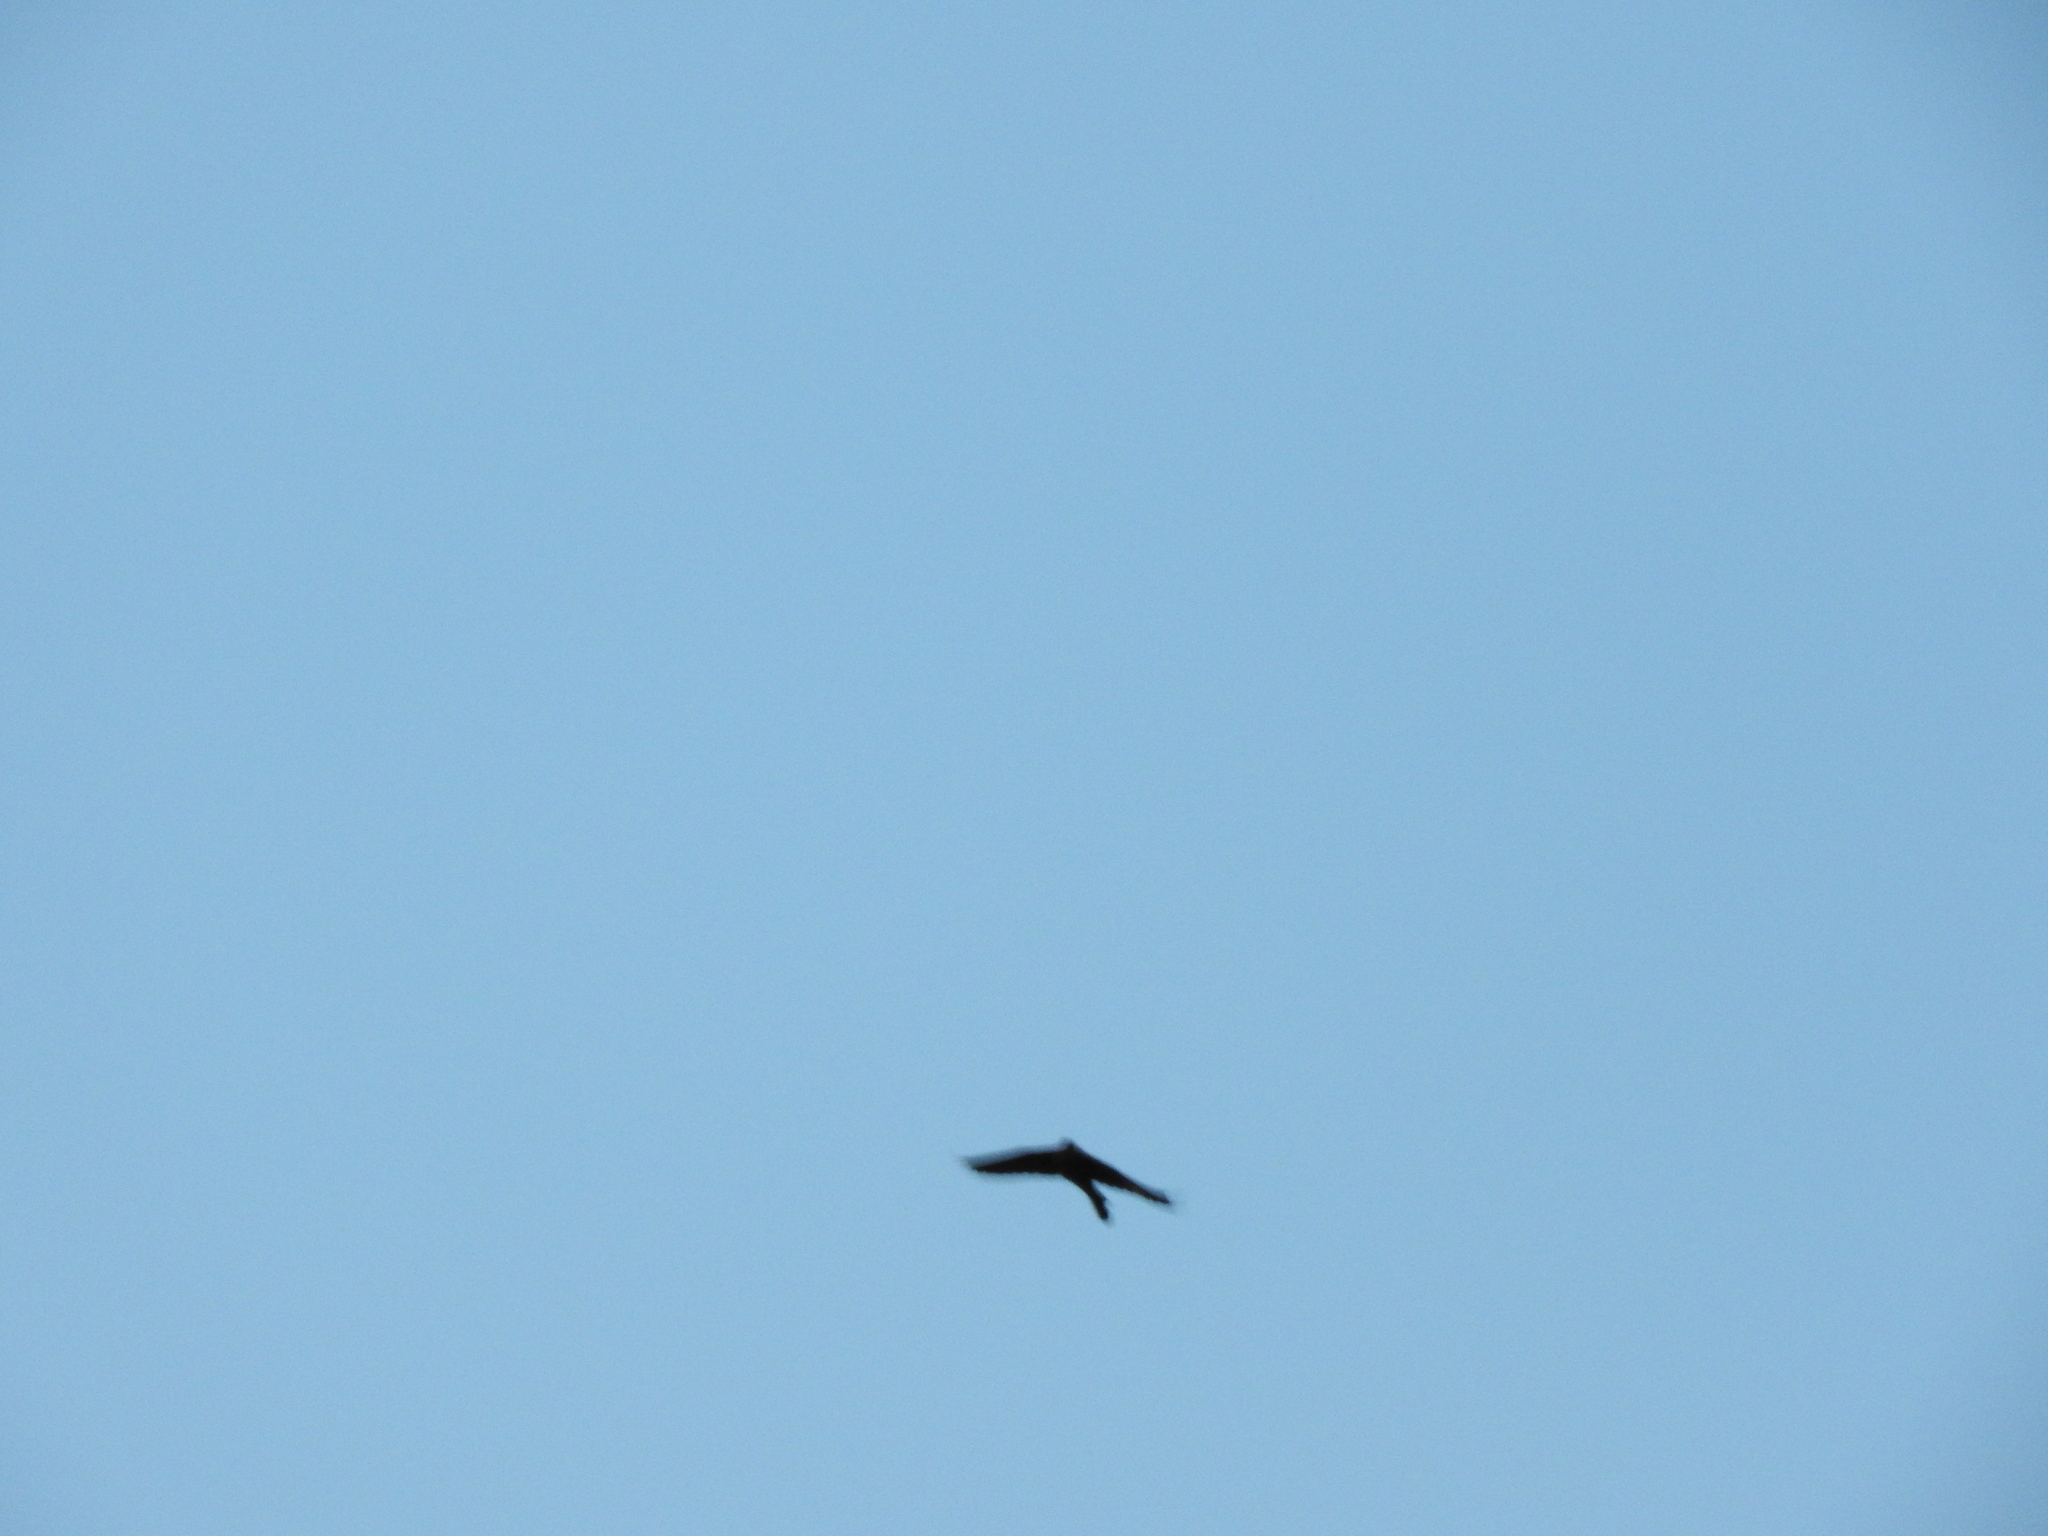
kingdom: Animalia
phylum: Chordata
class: Aves
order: Passeriformes
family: Icteridae
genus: Quiscalus
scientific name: Quiscalus mexicanus
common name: Great-tailed grackle
